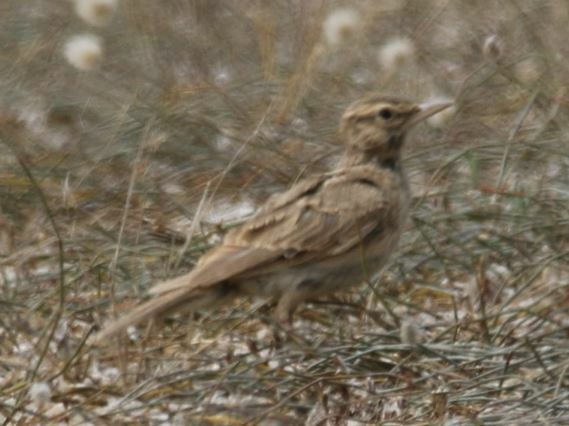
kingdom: Animalia
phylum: Chordata
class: Aves
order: Passeriformes
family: Alaudidae
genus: Galerida
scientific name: Galerida cristata
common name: Crested lark
